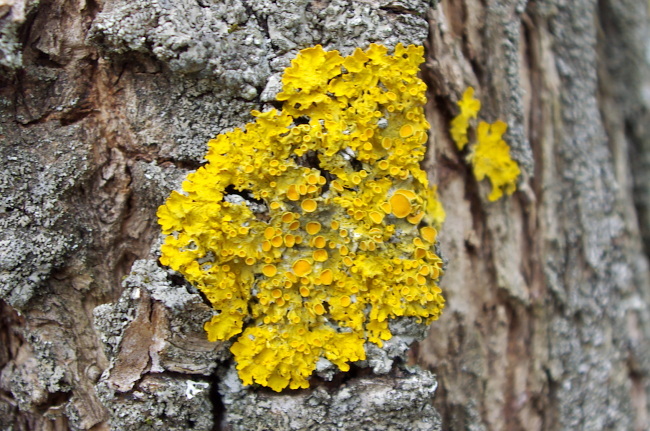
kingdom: Fungi
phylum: Ascomycota
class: Lecanoromycetes
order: Teloschistales
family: Teloschistaceae
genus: Xanthoria
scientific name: Xanthoria parietina
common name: Common orange lichen
